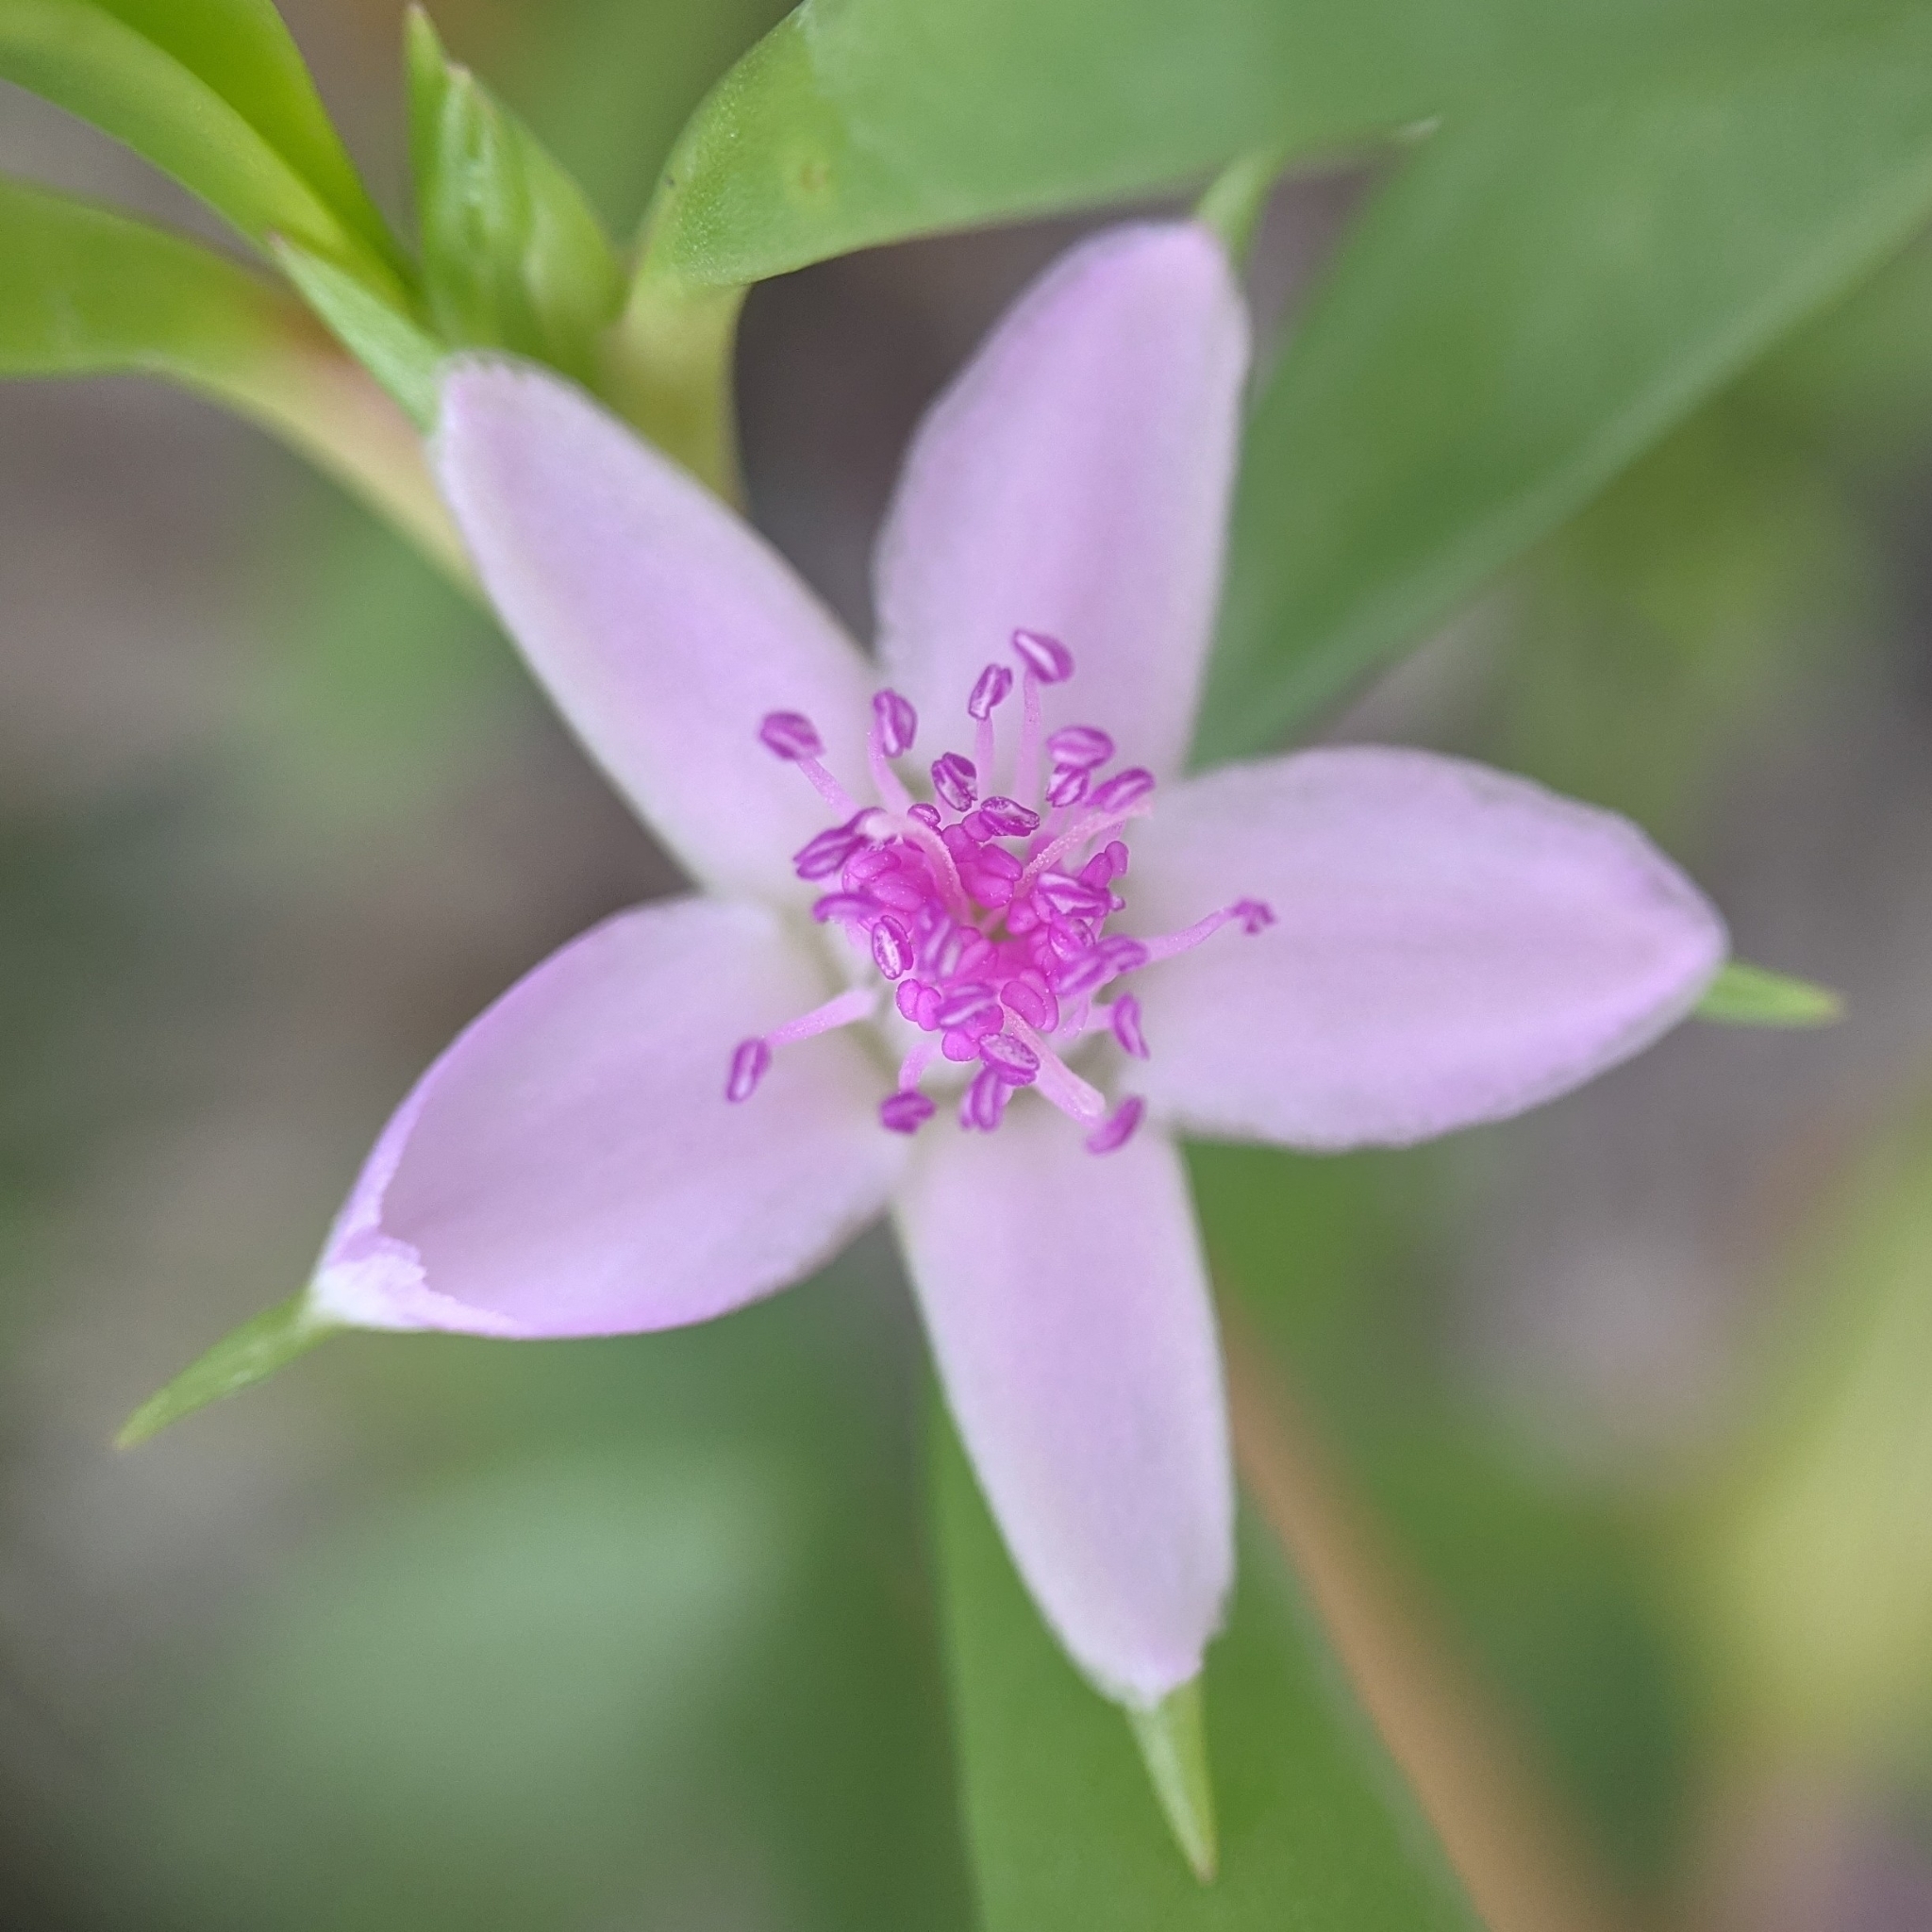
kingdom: Plantae
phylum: Tracheophyta
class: Magnoliopsida
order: Caryophyllales
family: Aizoaceae
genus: Sesuvium
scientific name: Sesuvium portulacastrum
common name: Sea-purslane
